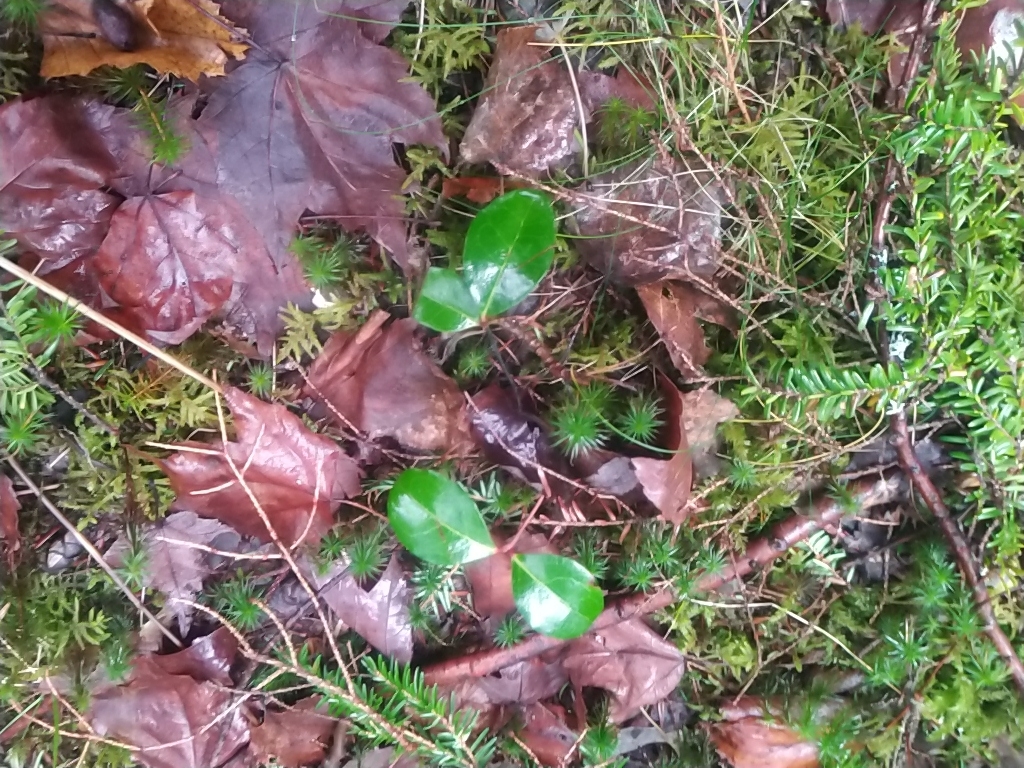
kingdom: Plantae
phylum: Tracheophyta
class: Magnoliopsida
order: Ericales
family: Ericaceae
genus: Gaultheria
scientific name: Gaultheria procumbens
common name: Checkerberry
